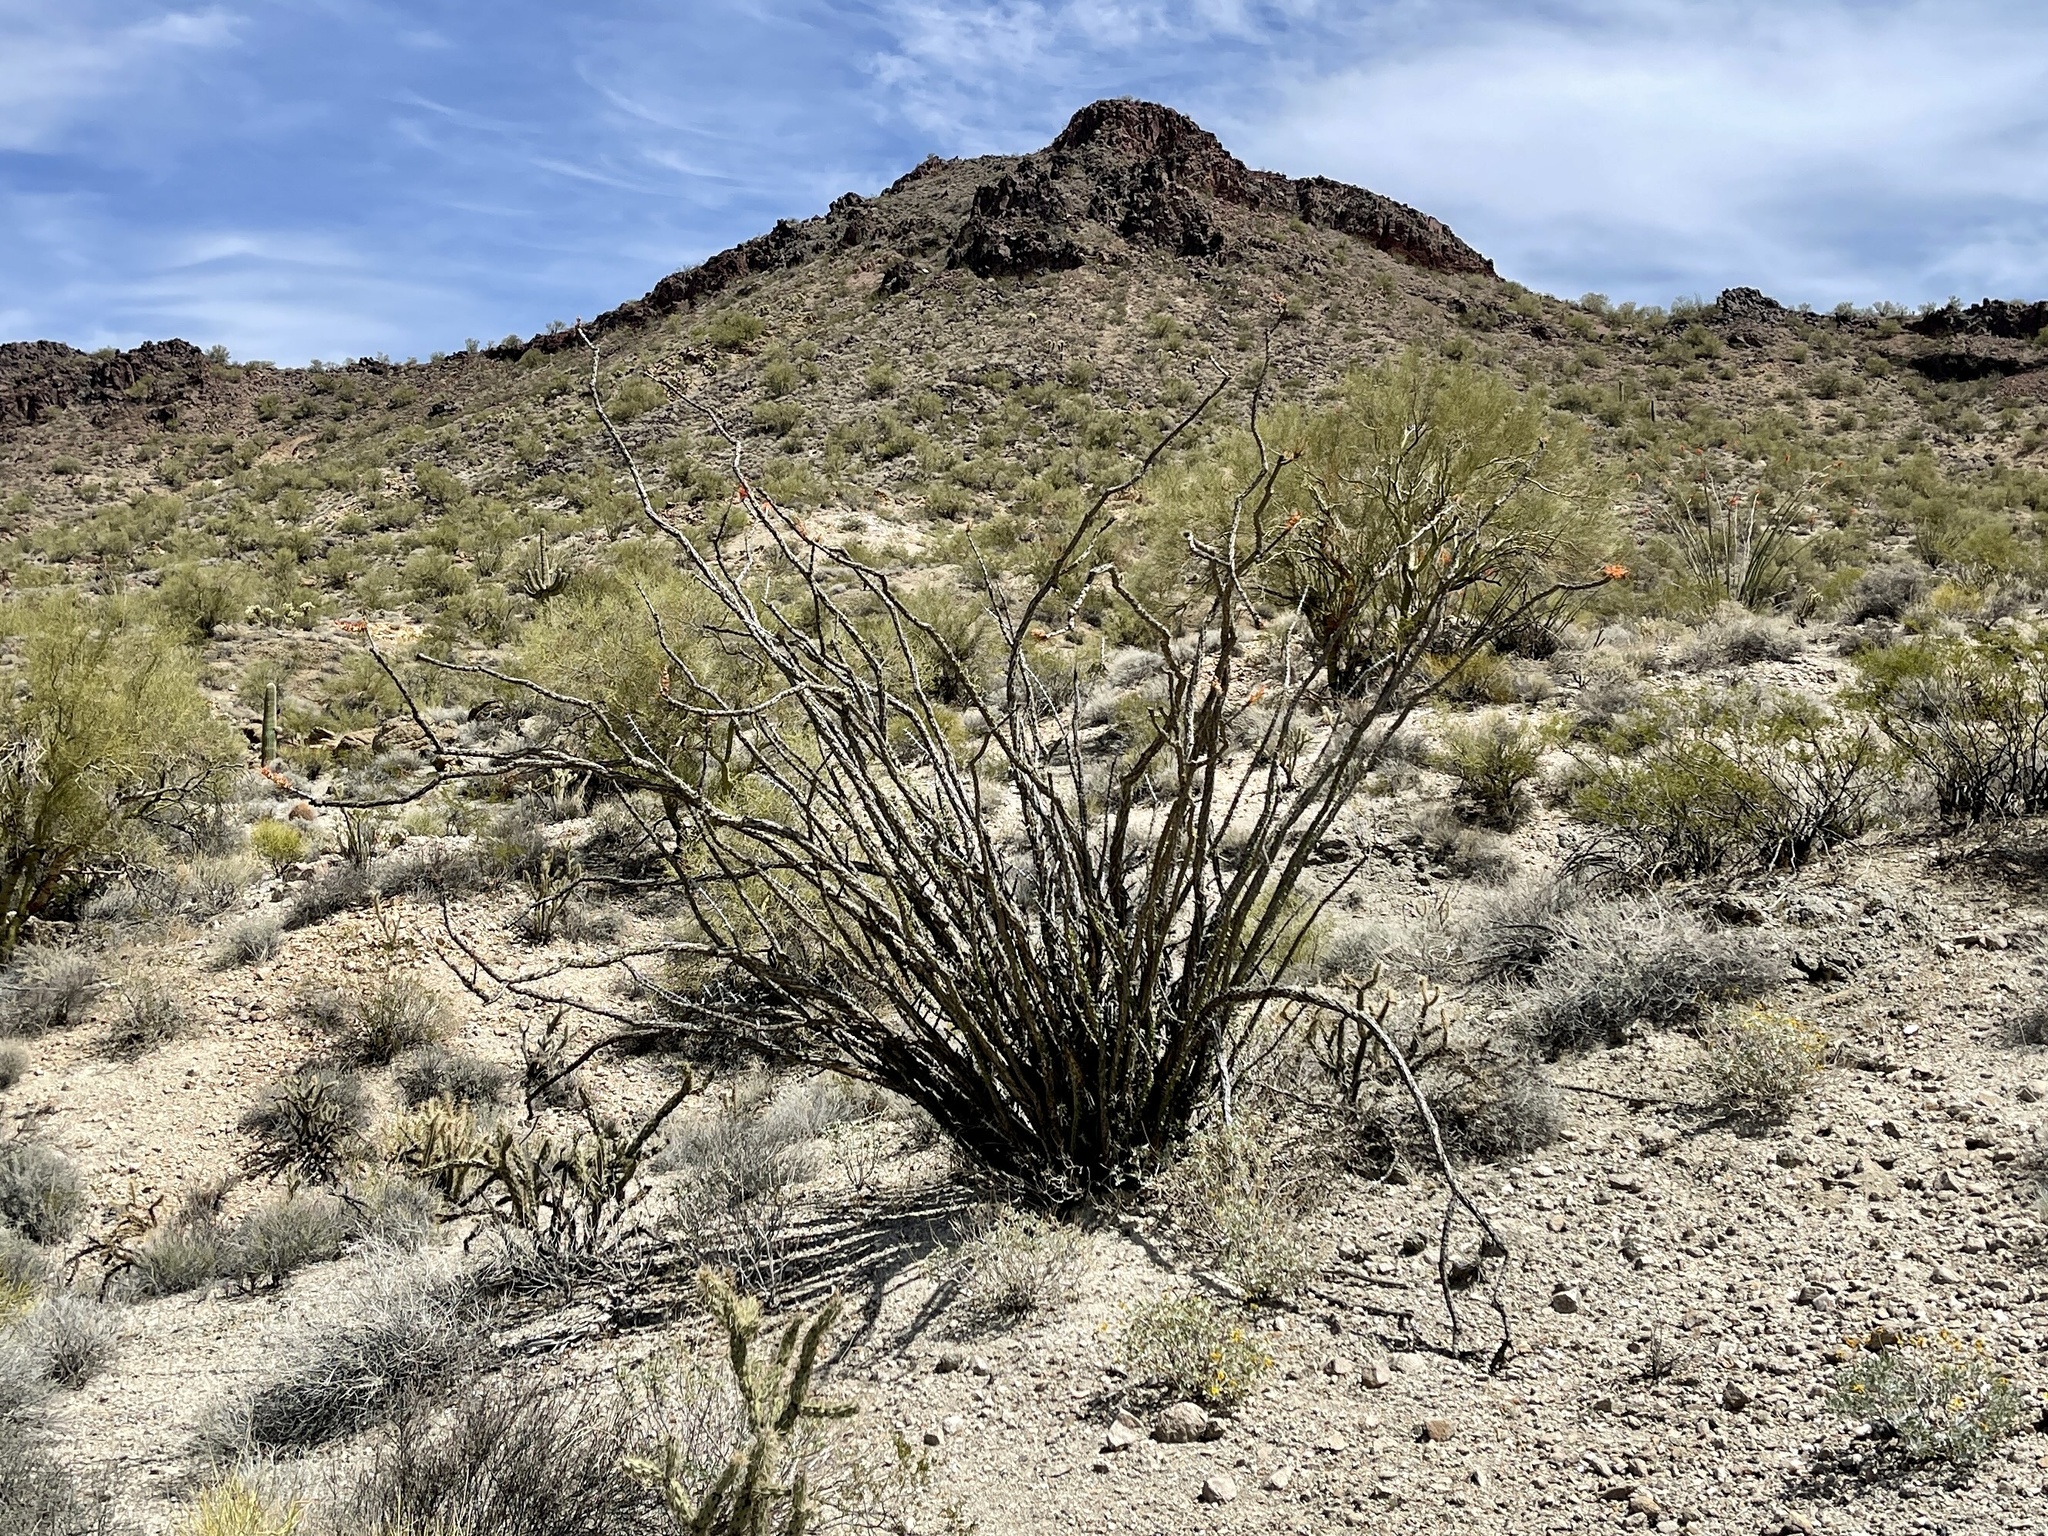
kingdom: Plantae
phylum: Tracheophyta
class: Magnoliopsida
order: Ericales
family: Fouquieriaceae
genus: Fouquieria
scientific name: Fouquieria splendens
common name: Vine-cactus
